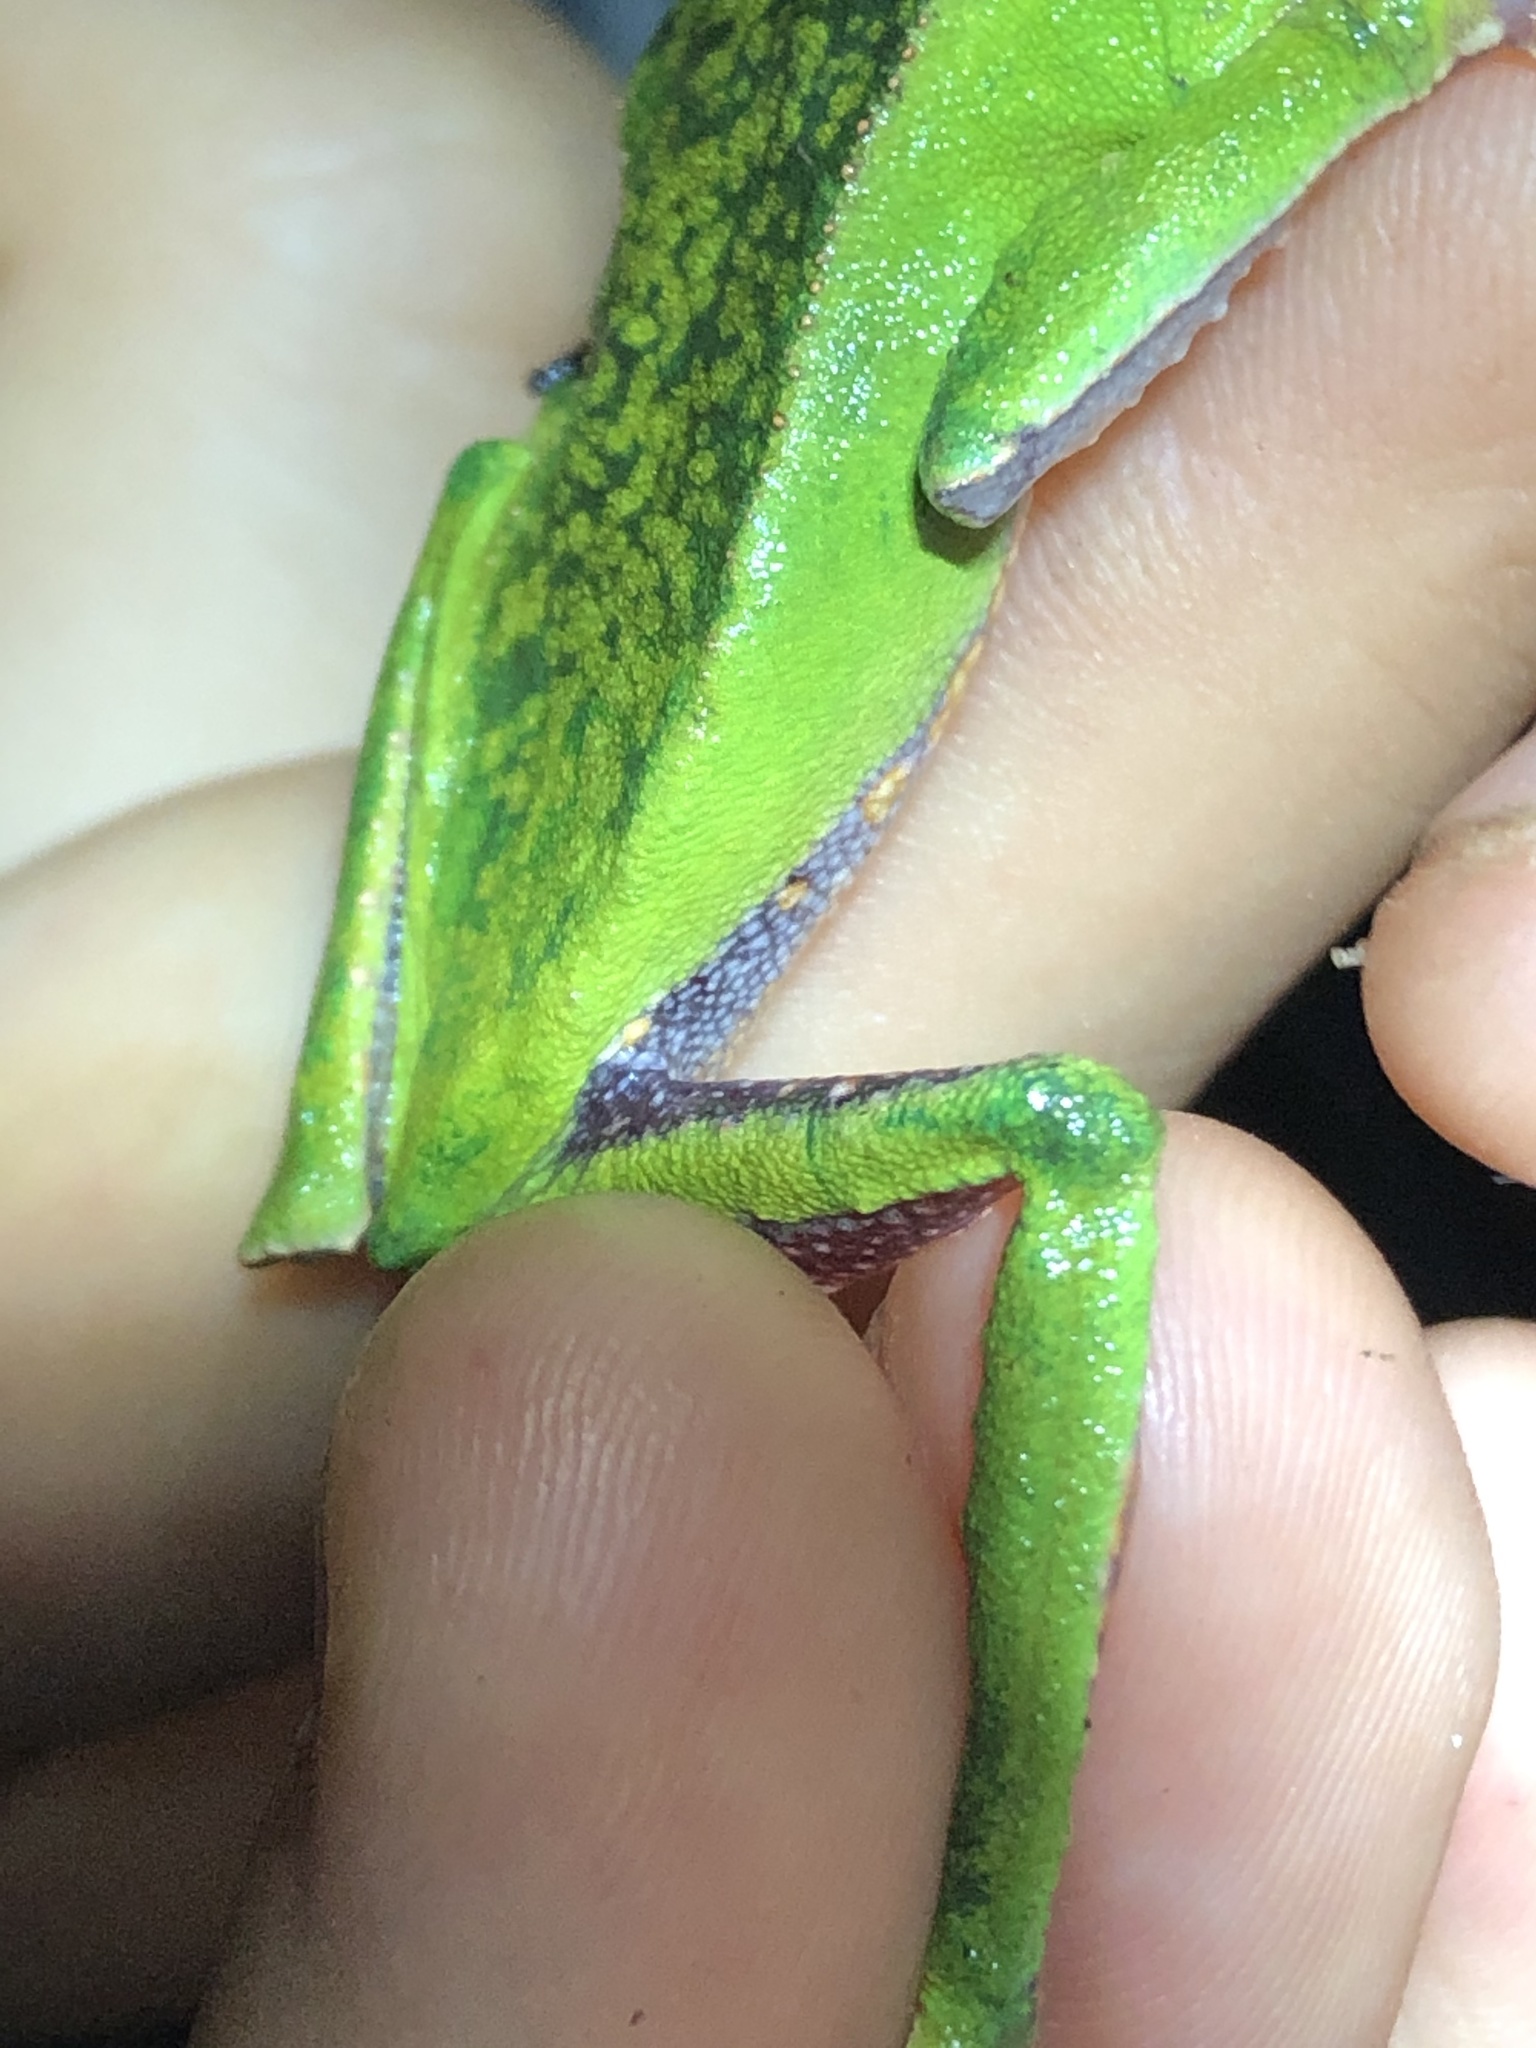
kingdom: Animalia
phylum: Chordata
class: Amphibia
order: Anura
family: Phyllomedusidae
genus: Phyllomedusa
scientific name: Phyllomedusa vaillantii
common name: White-lined leaf frog
